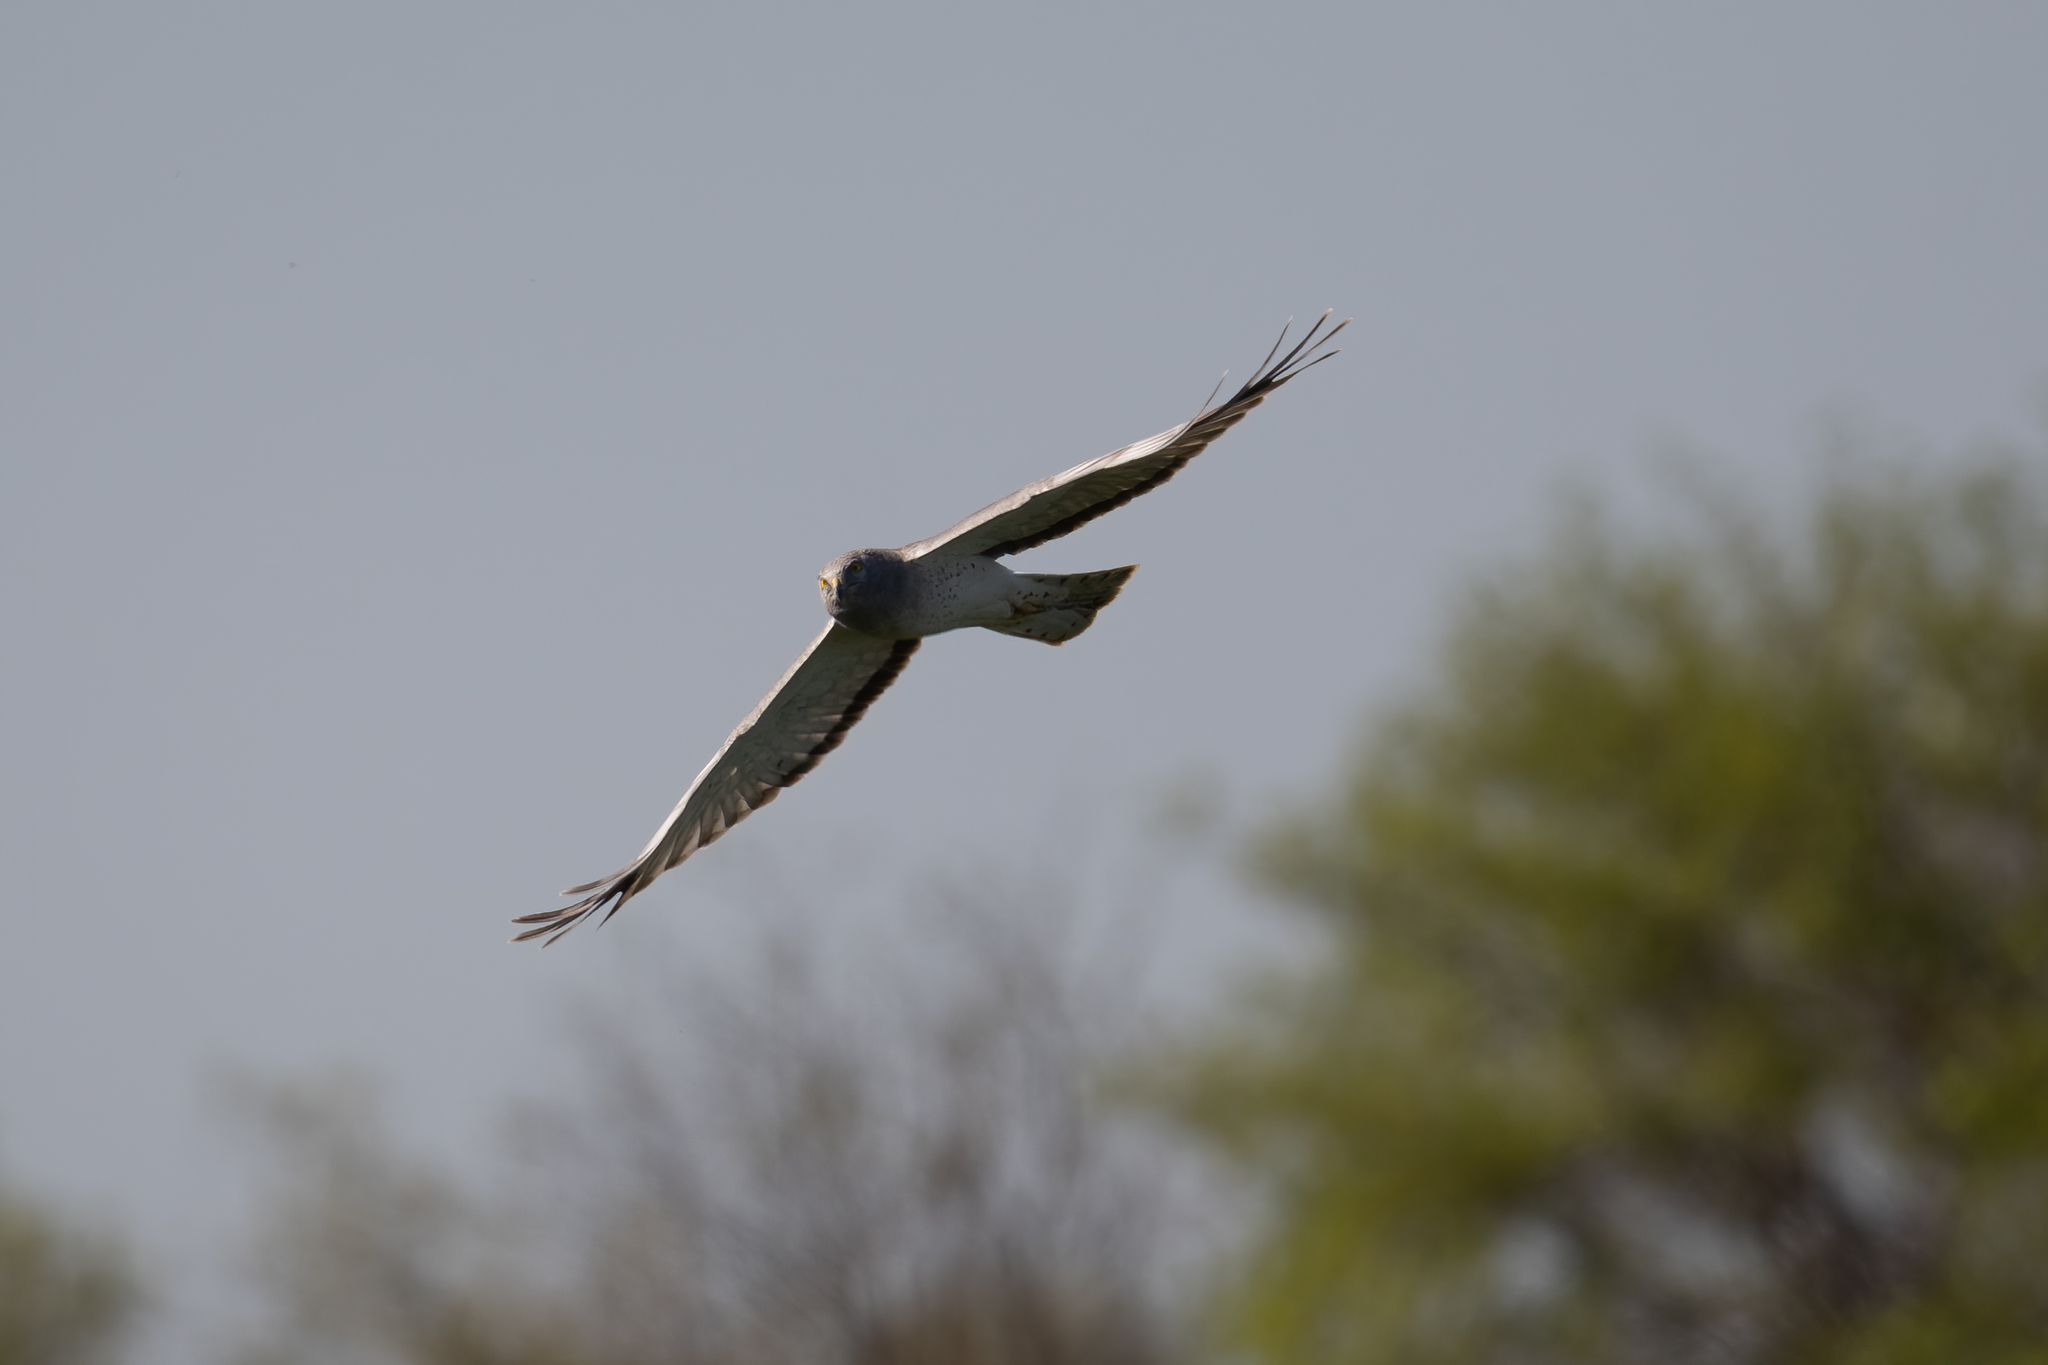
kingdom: Animalia
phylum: Chordata
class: Aves
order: Accipitriformes
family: Accipitridae
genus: Buteo
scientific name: Buteo swainsoni
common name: Swainson's hawk
